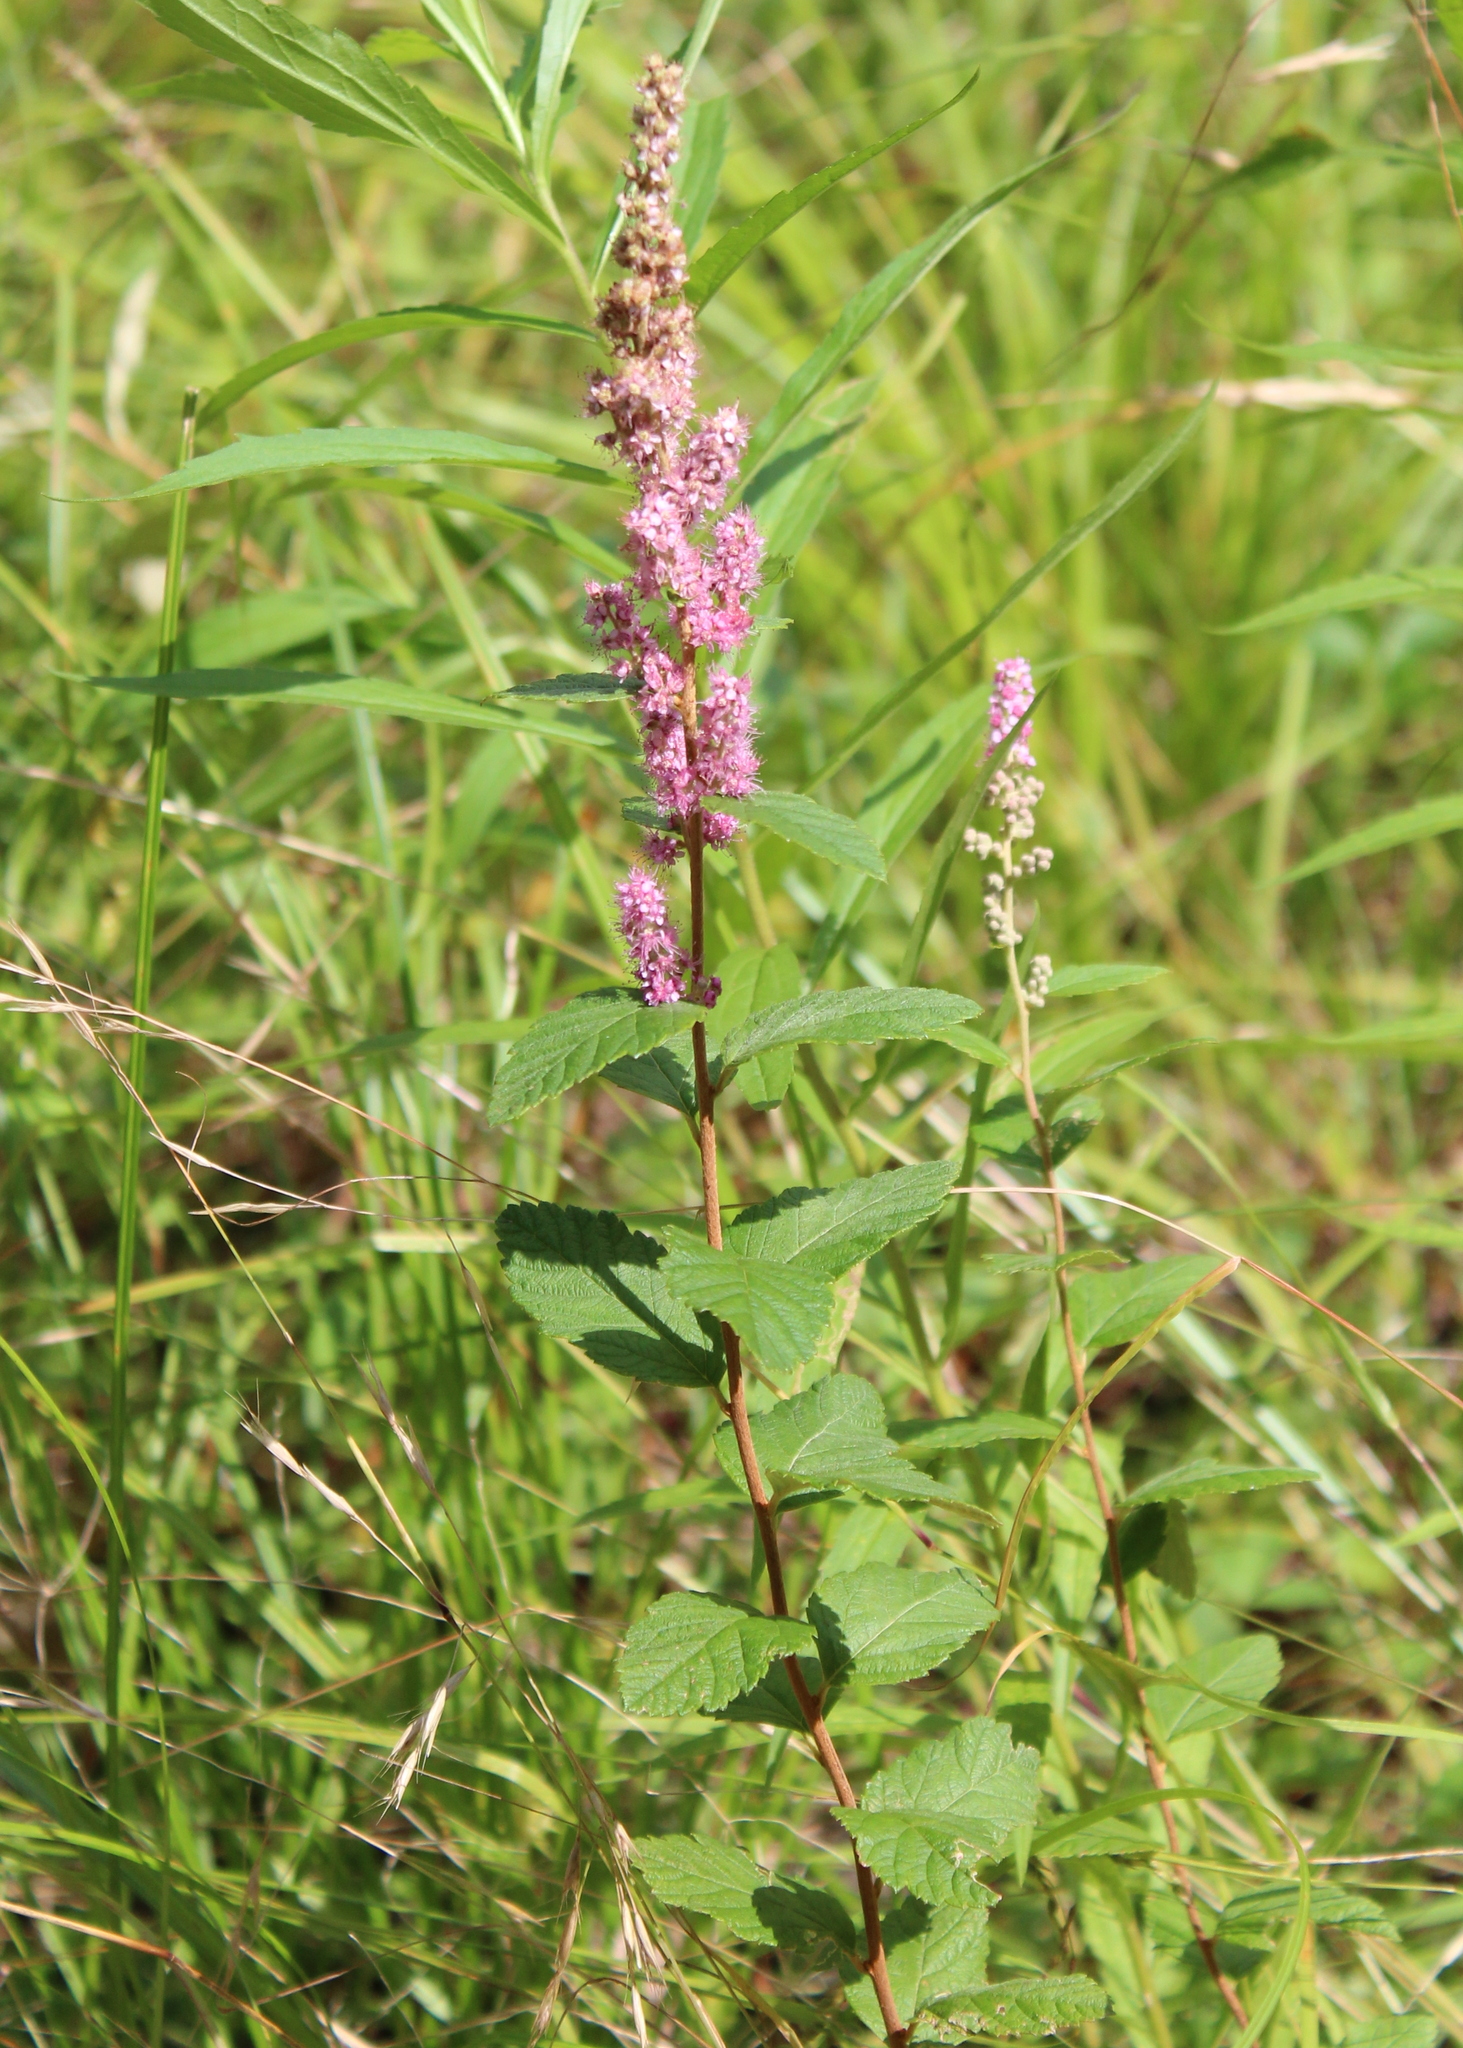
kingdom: Plantae
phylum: Tracheophyta
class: Magnoliopsida
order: Rosales
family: Rosaceae
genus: Spiraea
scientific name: Spiraea tomentosa
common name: Hardhack
